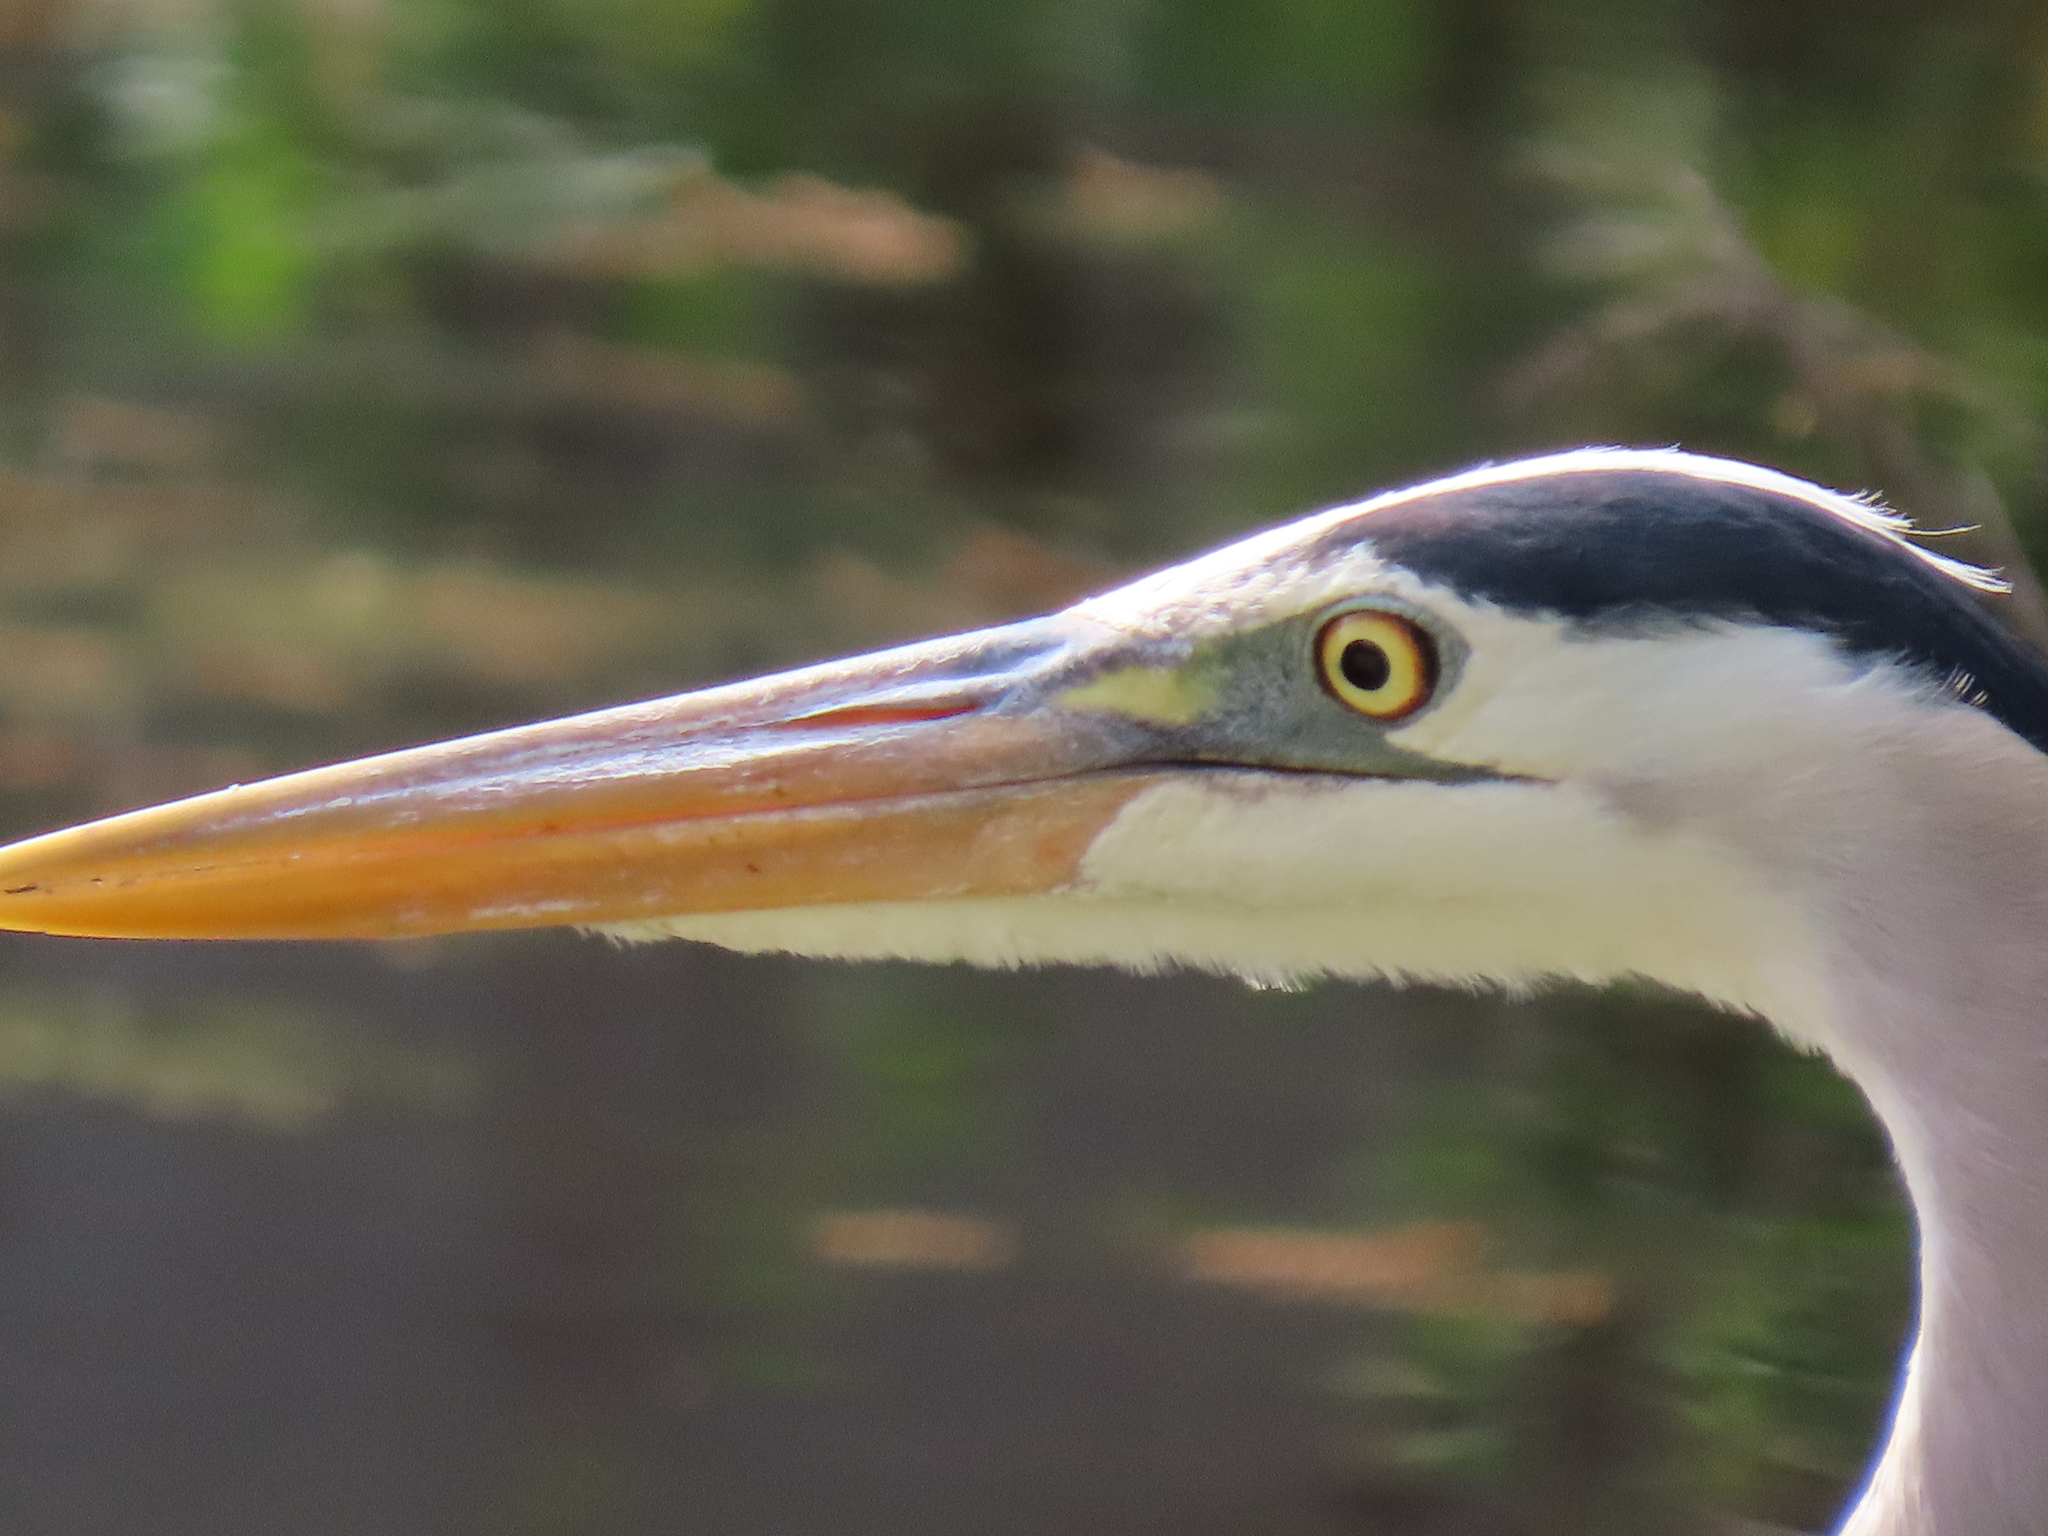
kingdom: Animalia
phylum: Chordata
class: Aves
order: Pelecaniformes
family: Ardeidae
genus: Ardea
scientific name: Ardea herodias
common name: Great blue heron
